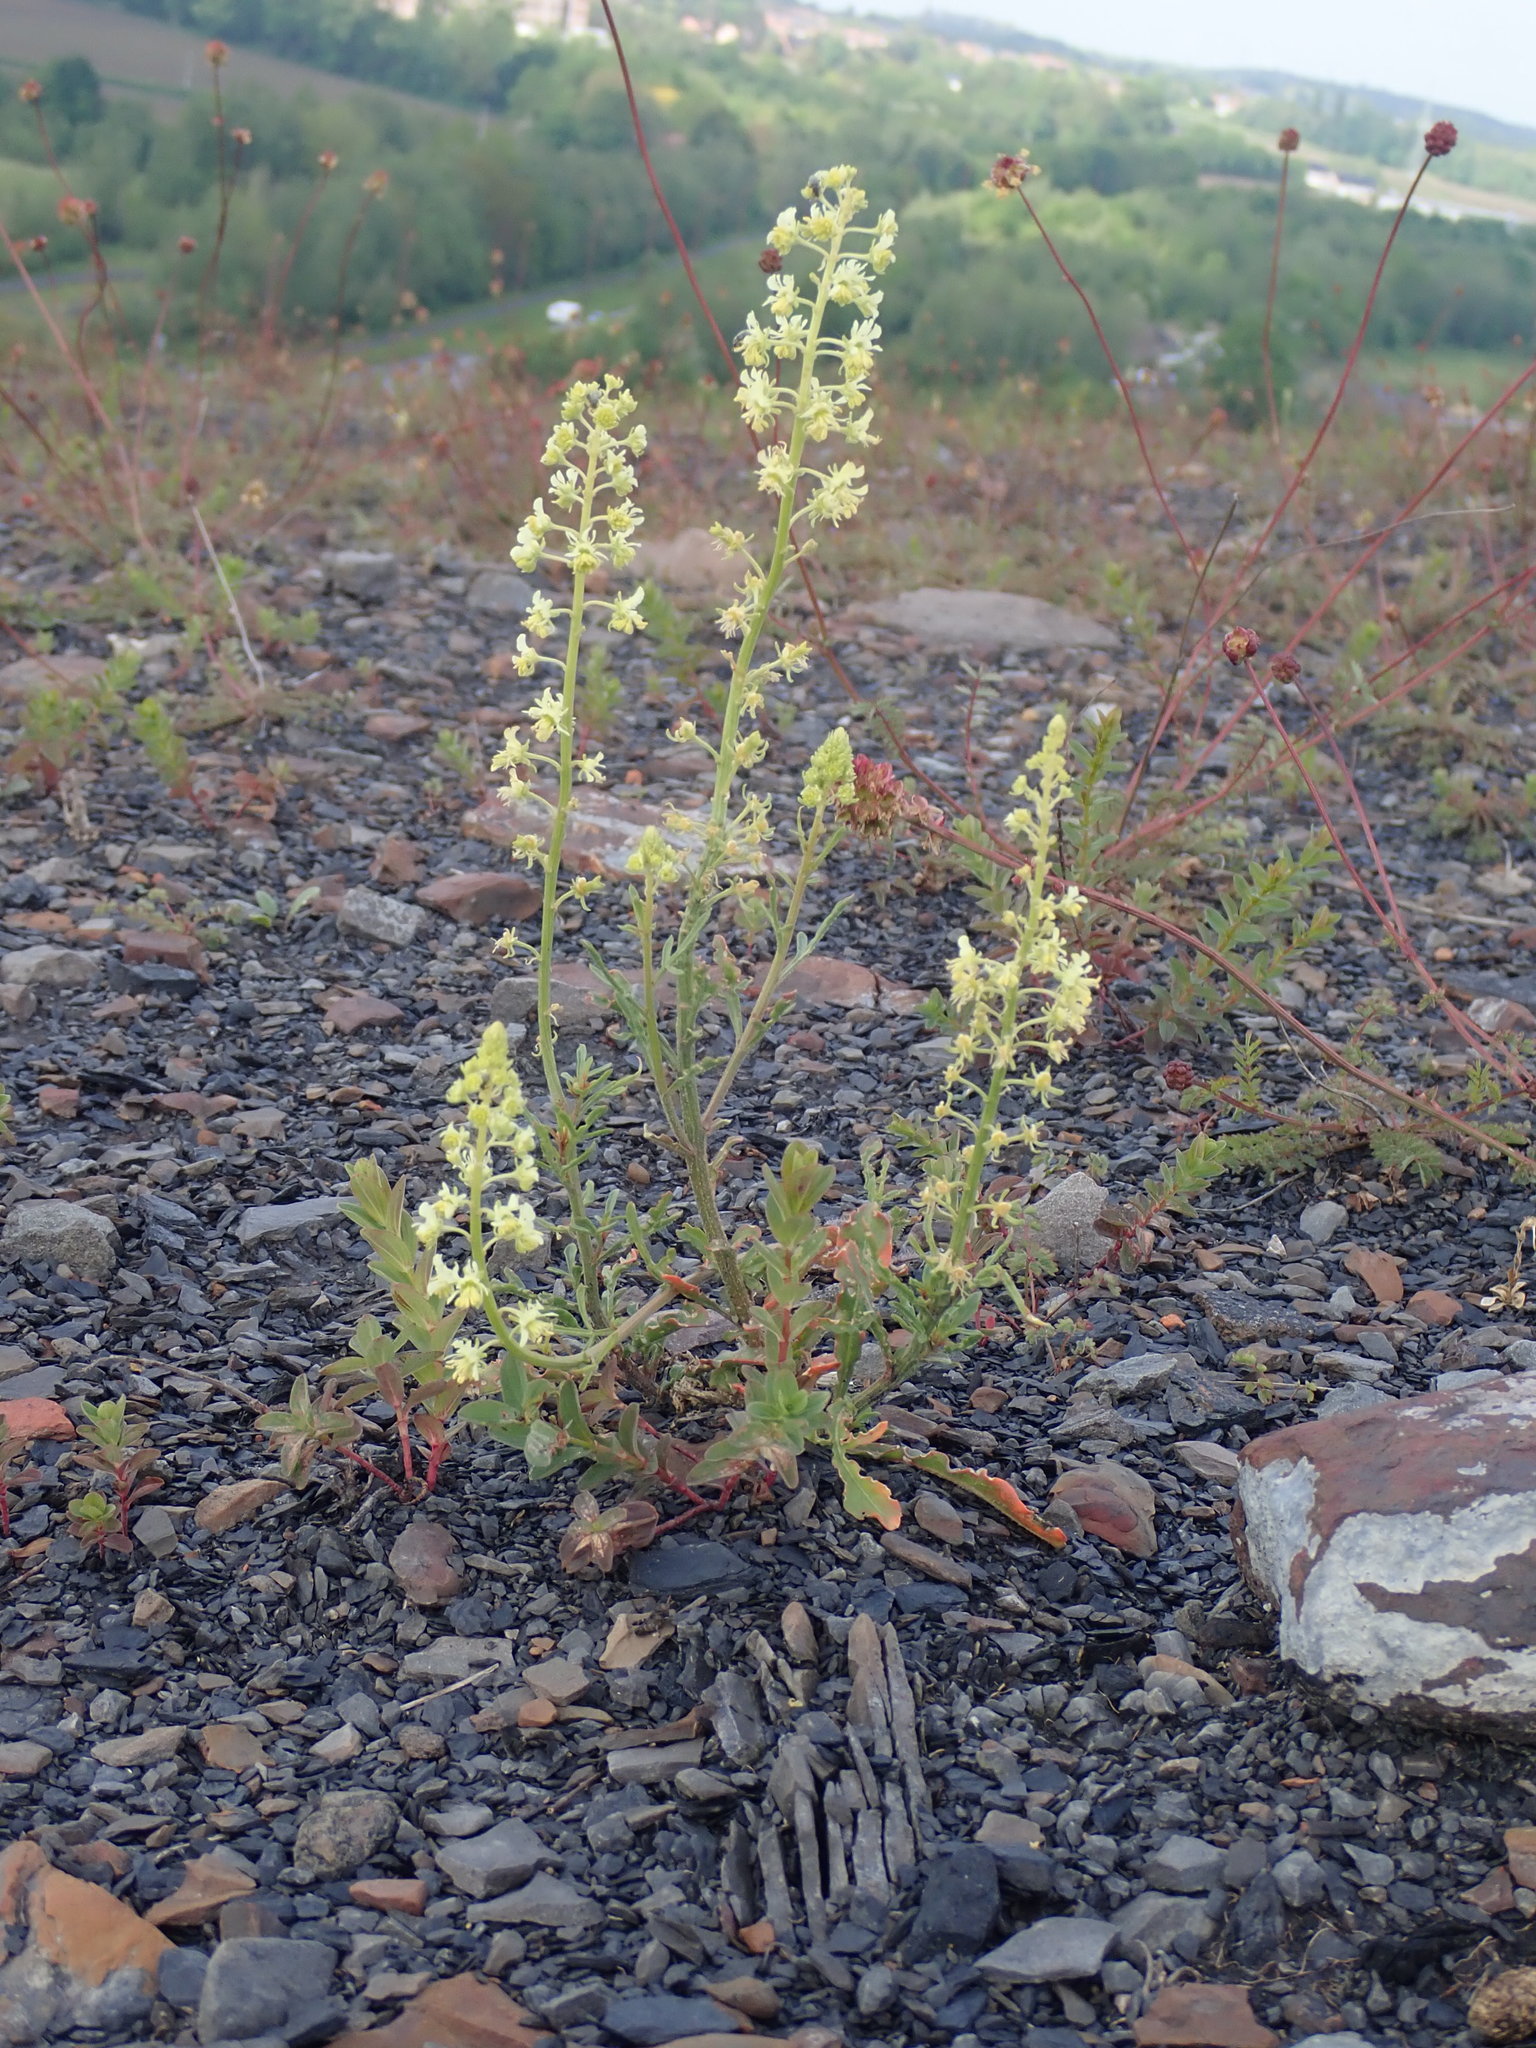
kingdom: Plantae
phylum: Tracheophyta
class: Magnoliopsida
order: Brassicales
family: Resedaceae
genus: Reseda
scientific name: Reseda lutea
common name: Wild mignonette
